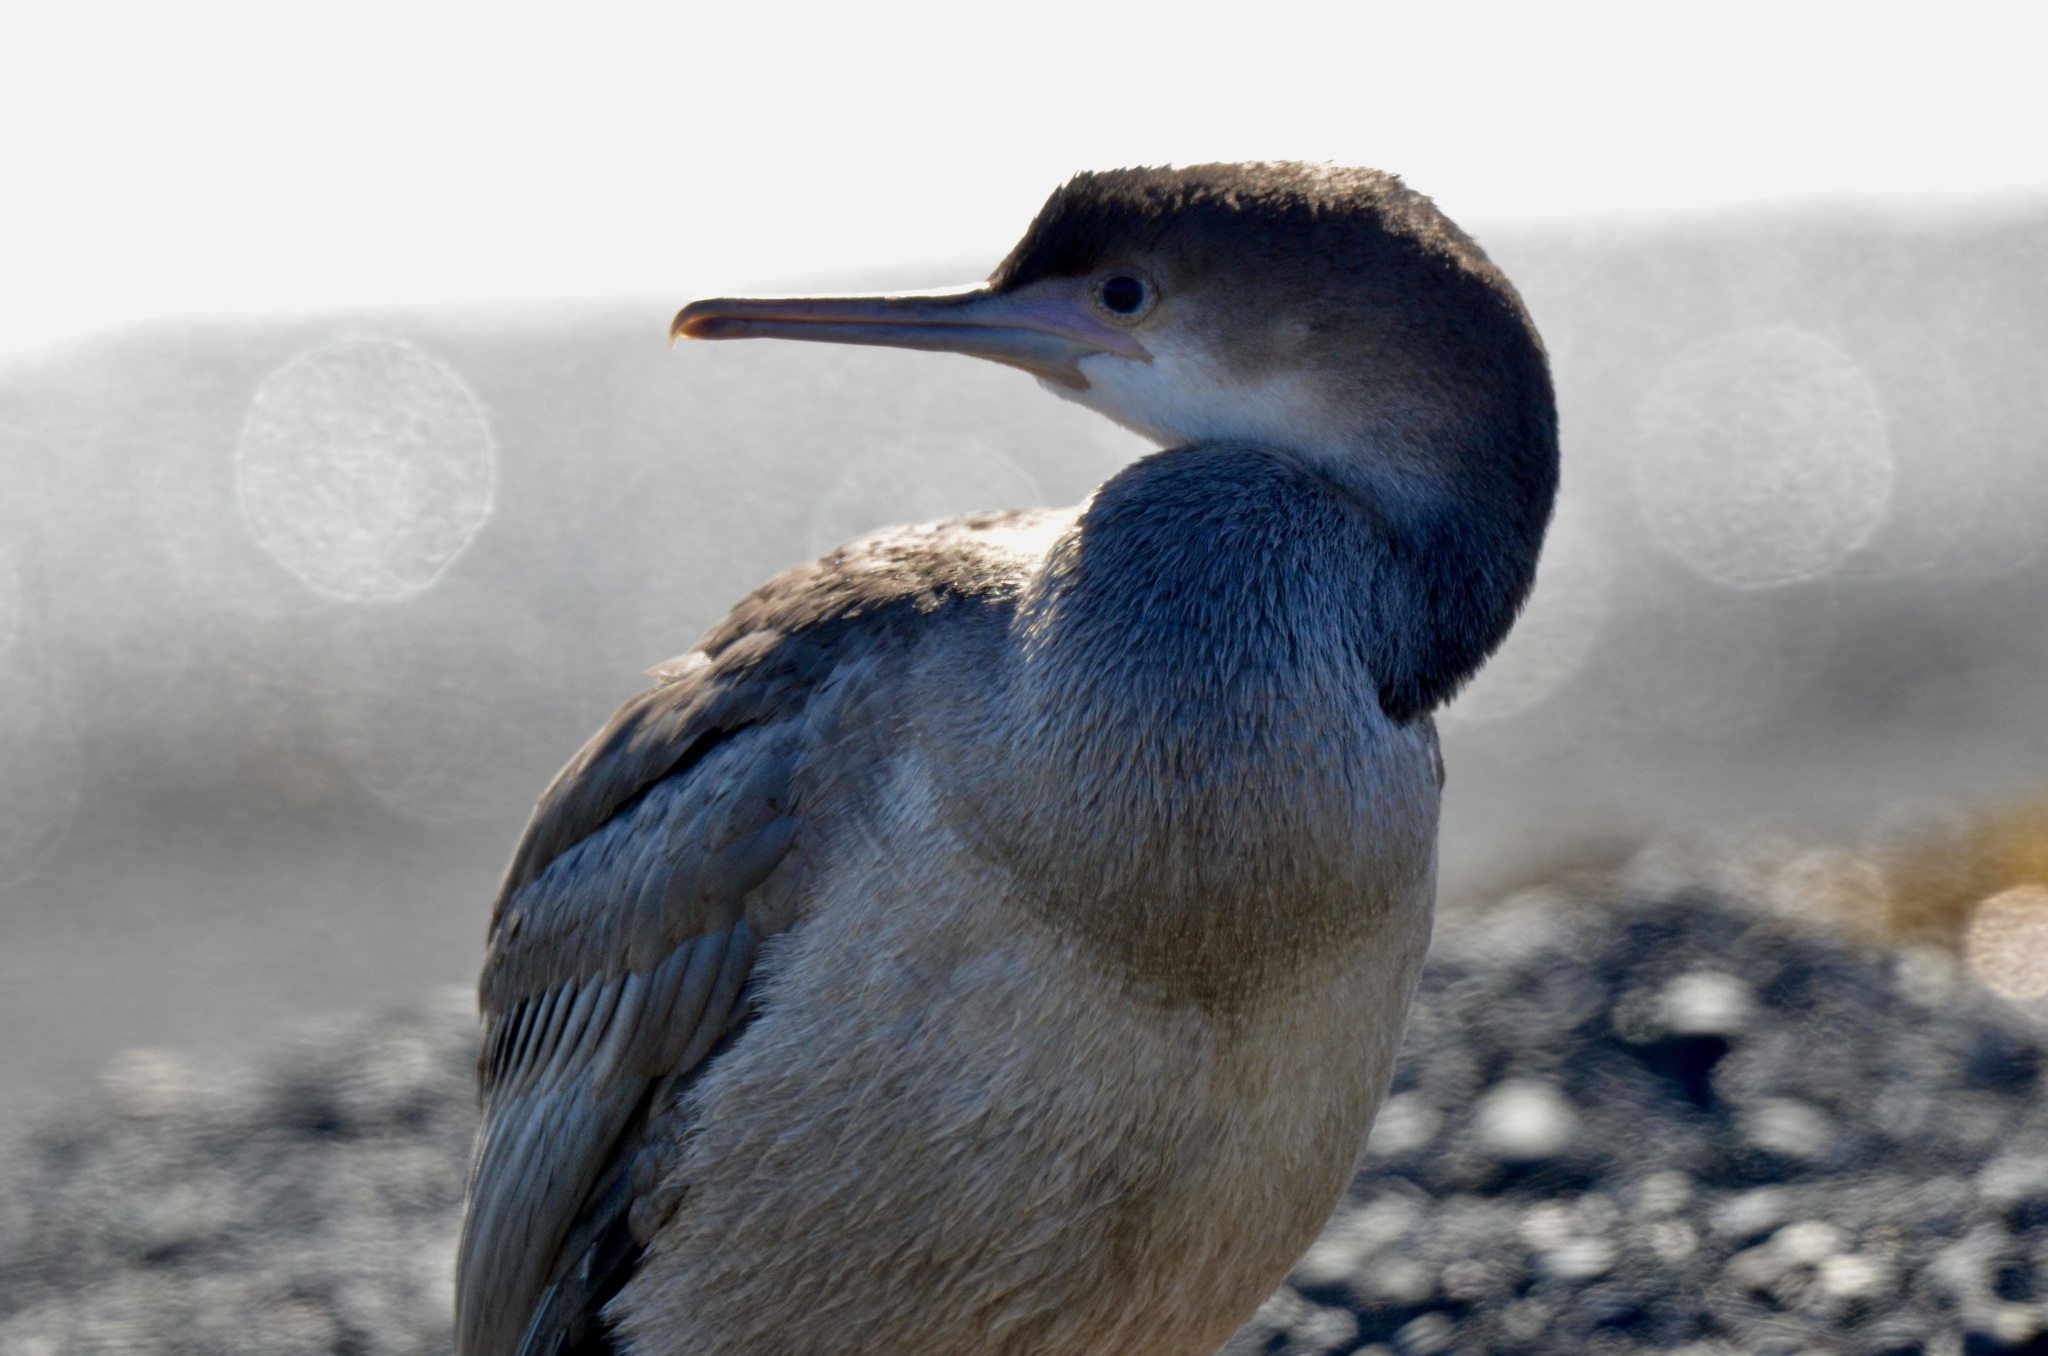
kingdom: Animalia
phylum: Chordata
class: Aves
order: Suliformes
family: Phalacrocoracidae
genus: Phalacrocorax
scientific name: Phalacrocorax punctatus
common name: Spotted shag
